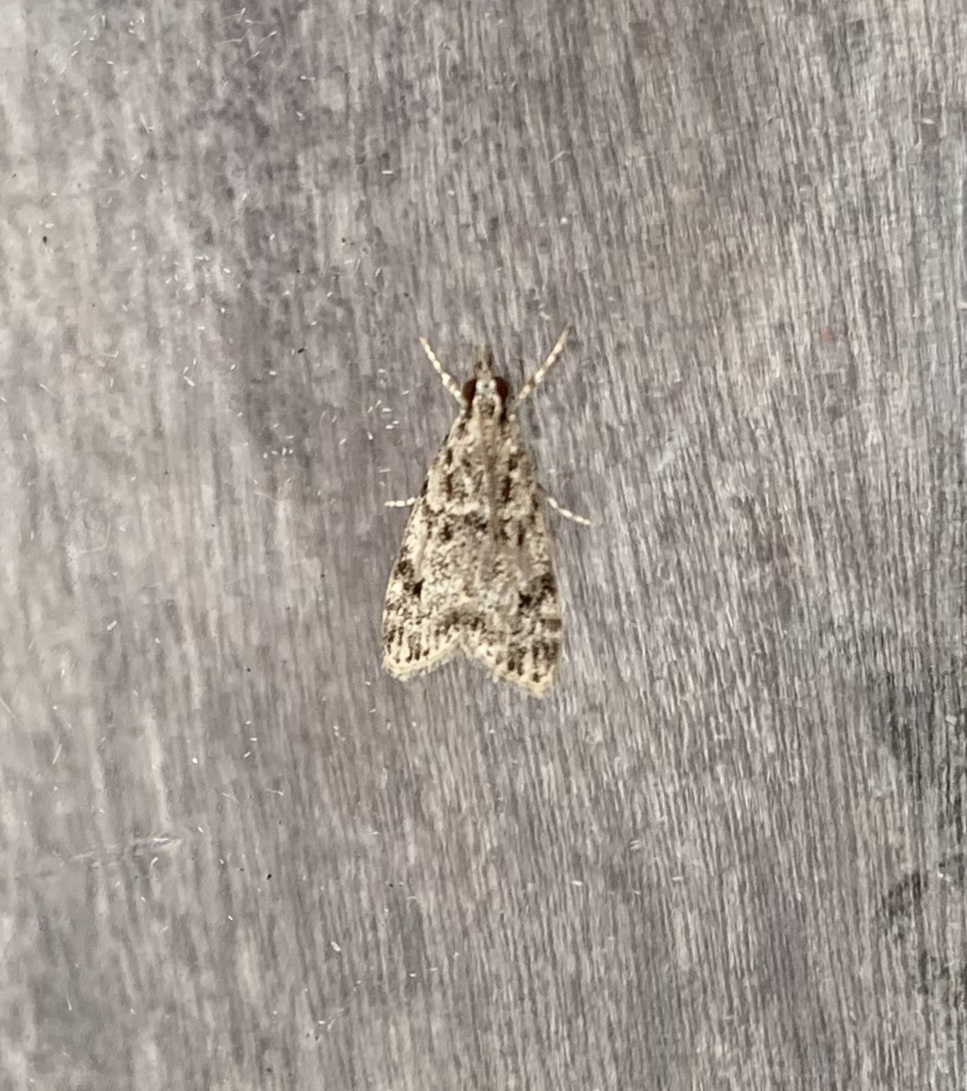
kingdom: Animalia
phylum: Arthropoda
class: Insecta
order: Lepidoptera
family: Crambidae
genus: Eudonia
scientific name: Eudonia strigalis
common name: Striped eudonia moth
